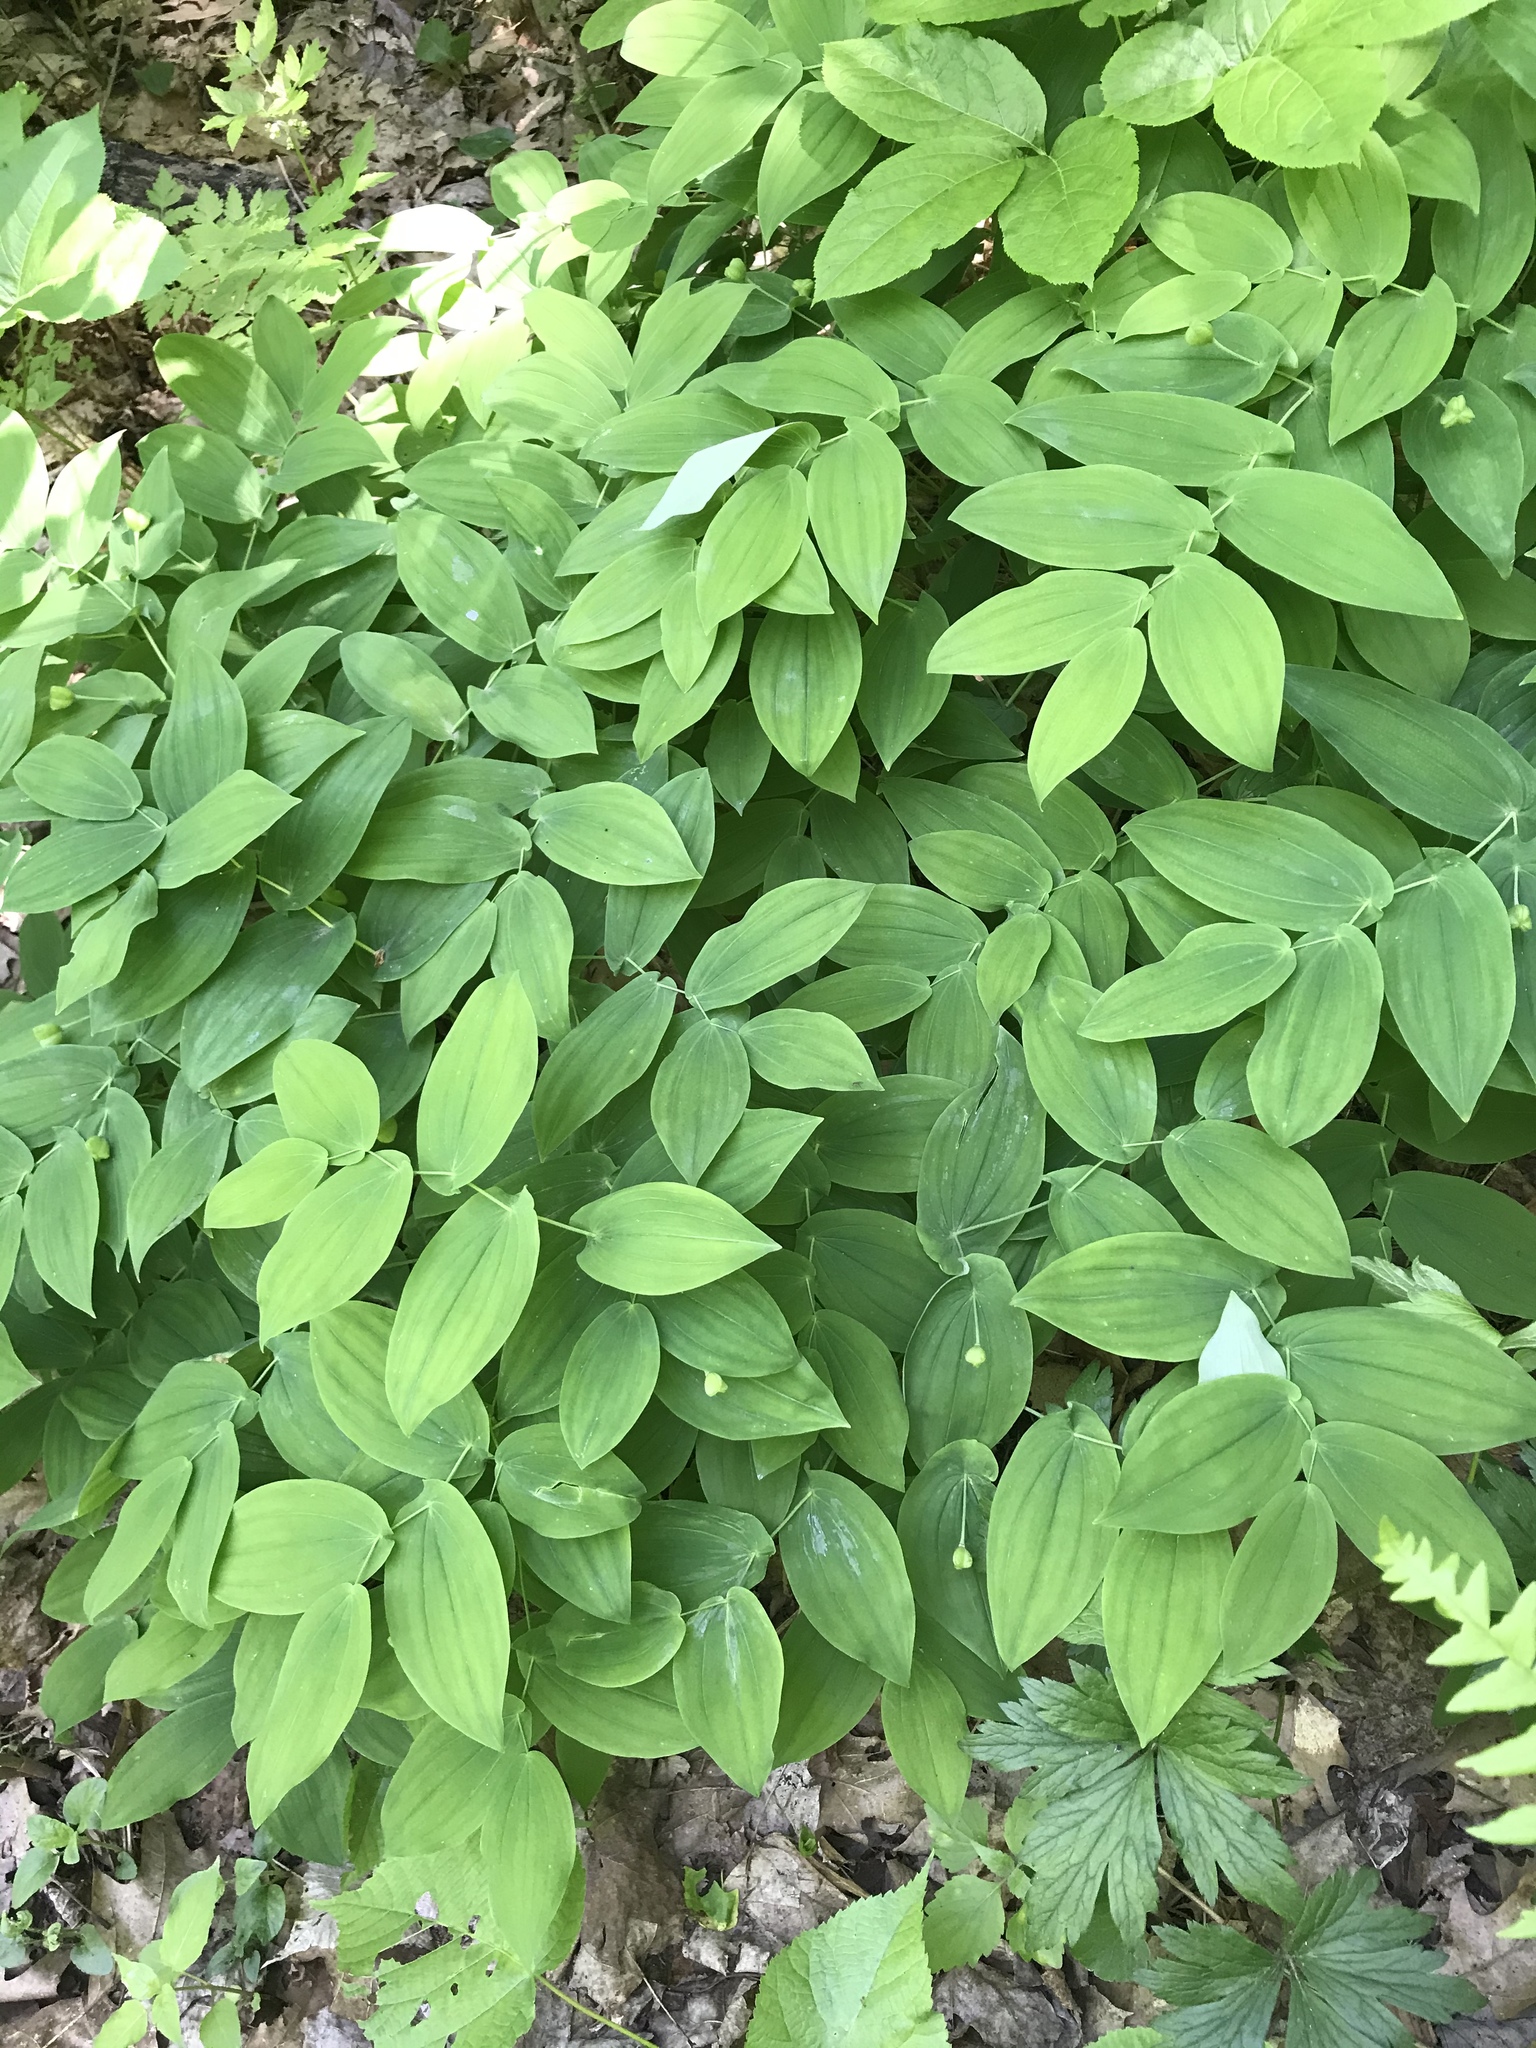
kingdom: Plantae
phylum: Tracheophyta
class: Liliopsida
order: Liliales
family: Colchicaceae
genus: Uvularia
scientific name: Uvularia grandiflora
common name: Bellwort
